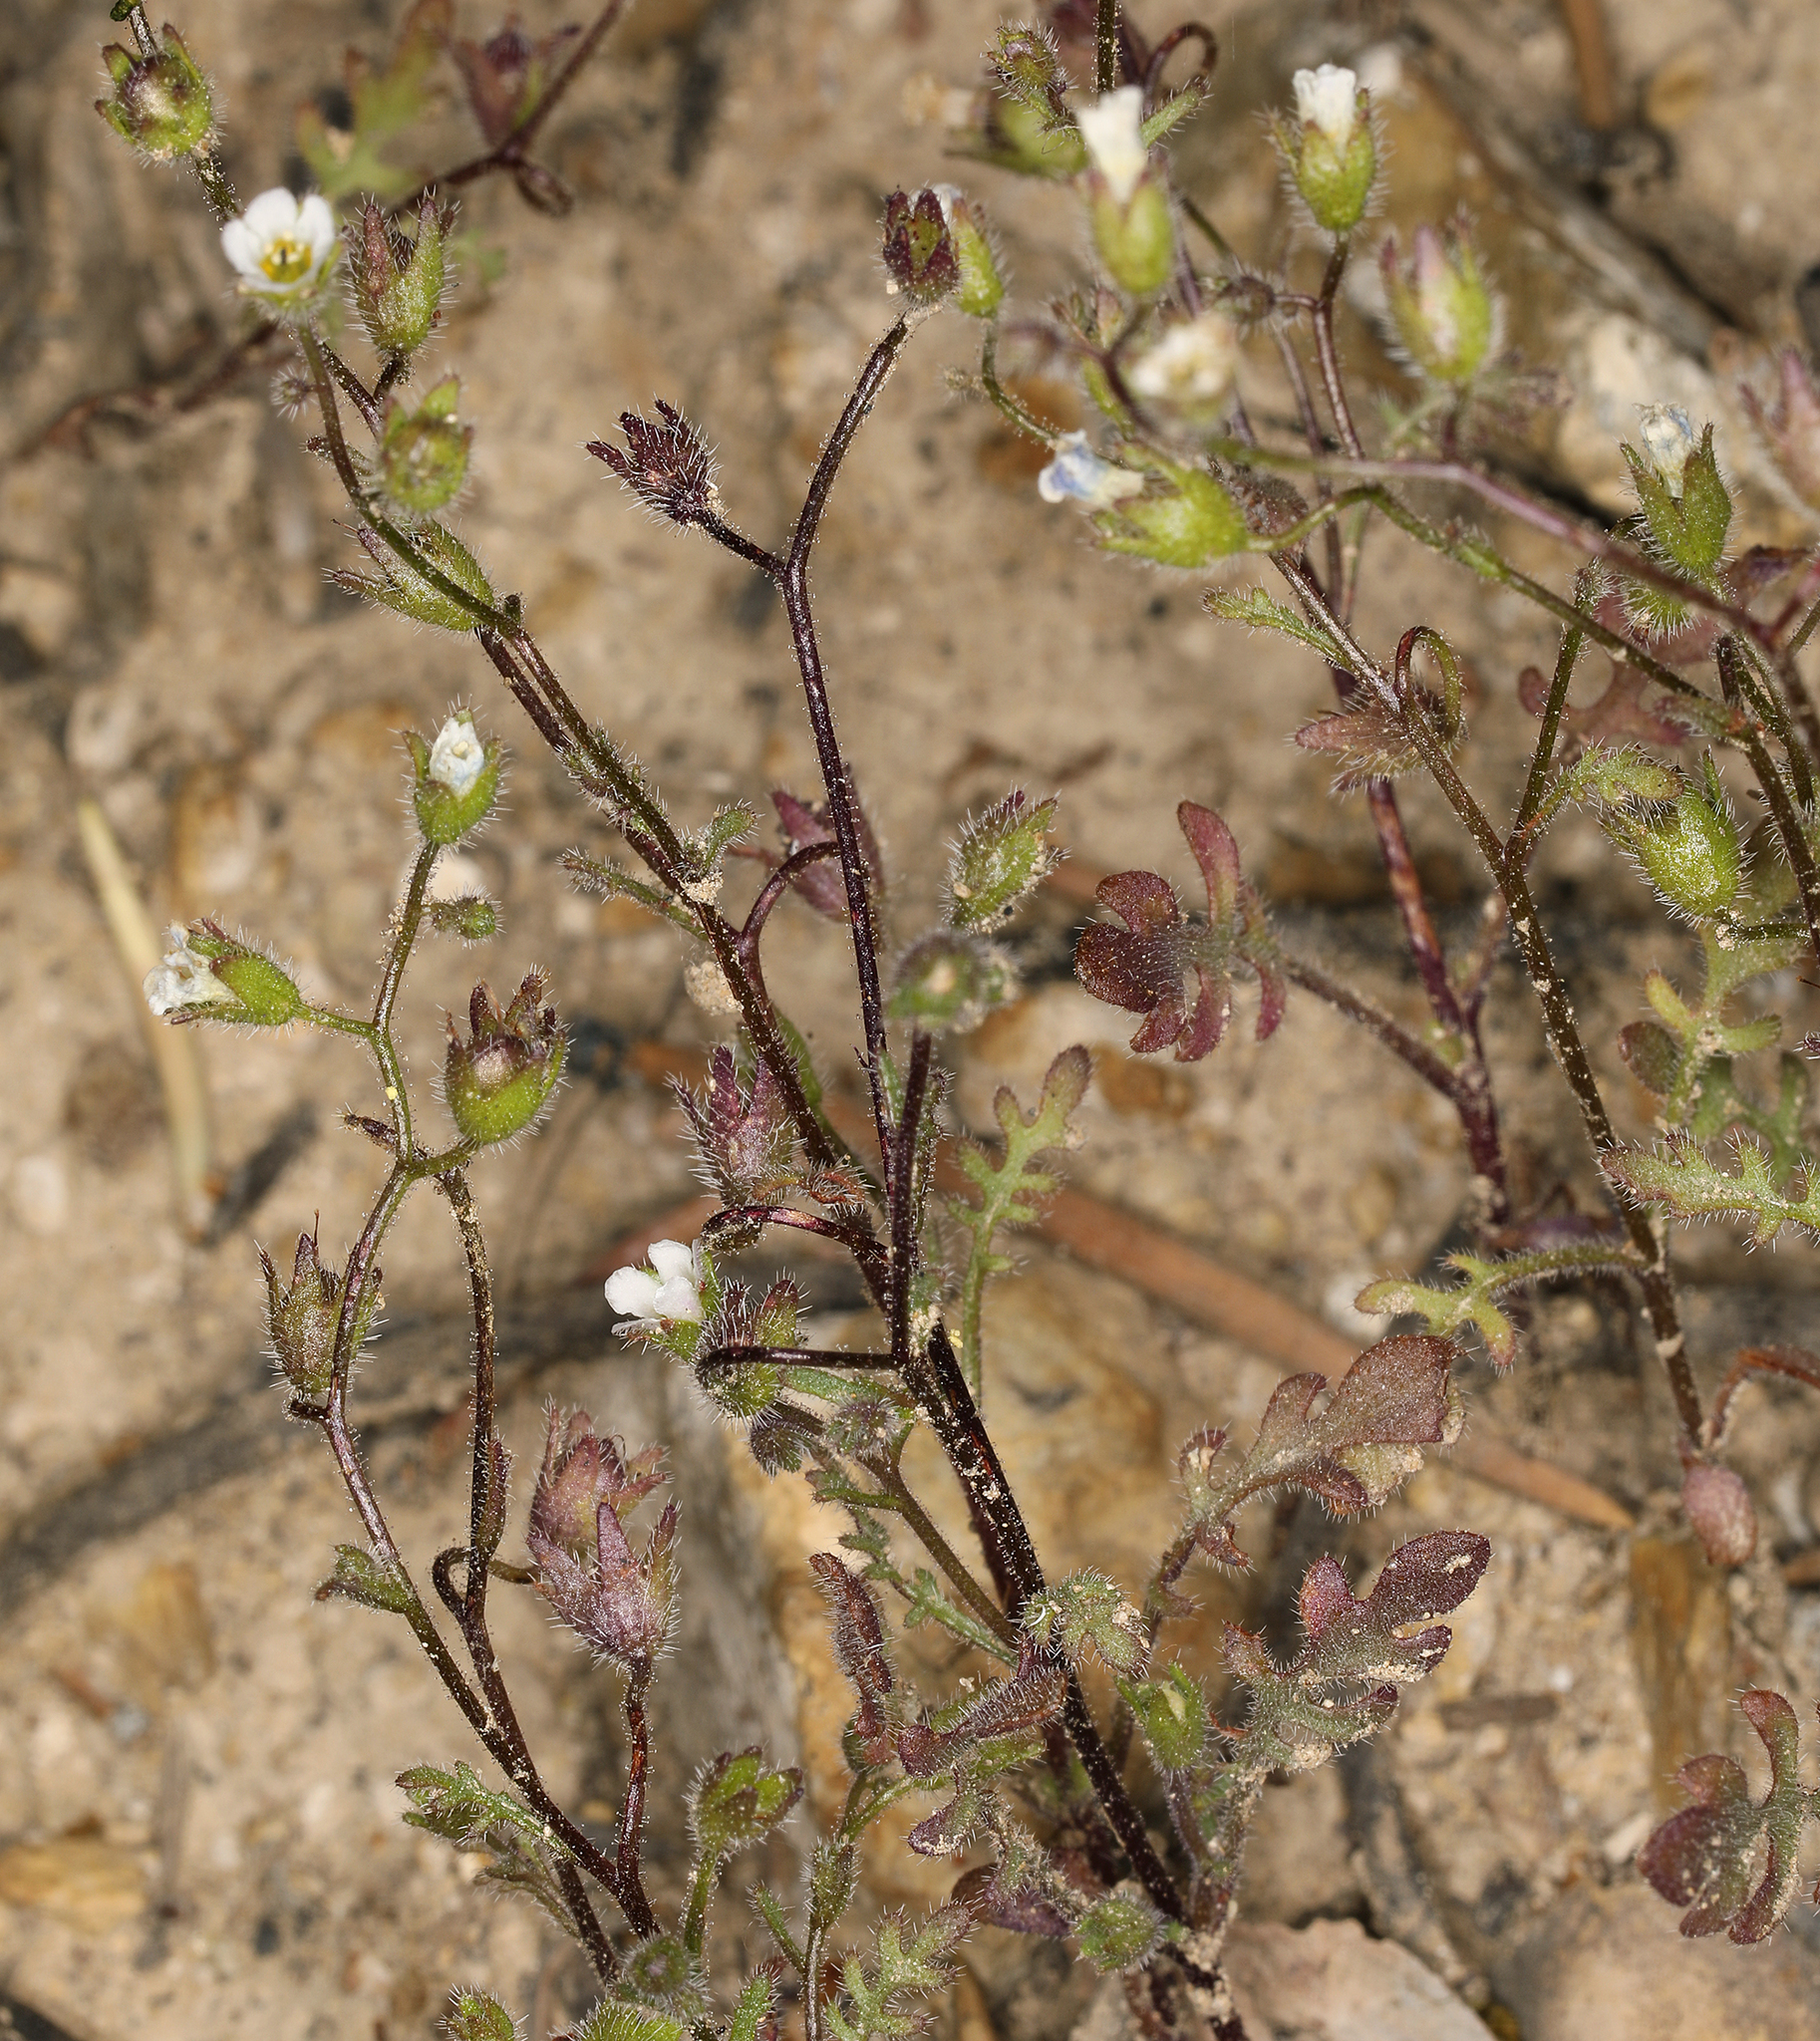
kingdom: Plantae
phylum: Tracheophyta
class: Magnoliopsida
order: Boraginales
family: Hydrophyllaceae
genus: Eucrypta
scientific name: Eucrypta micrantha
